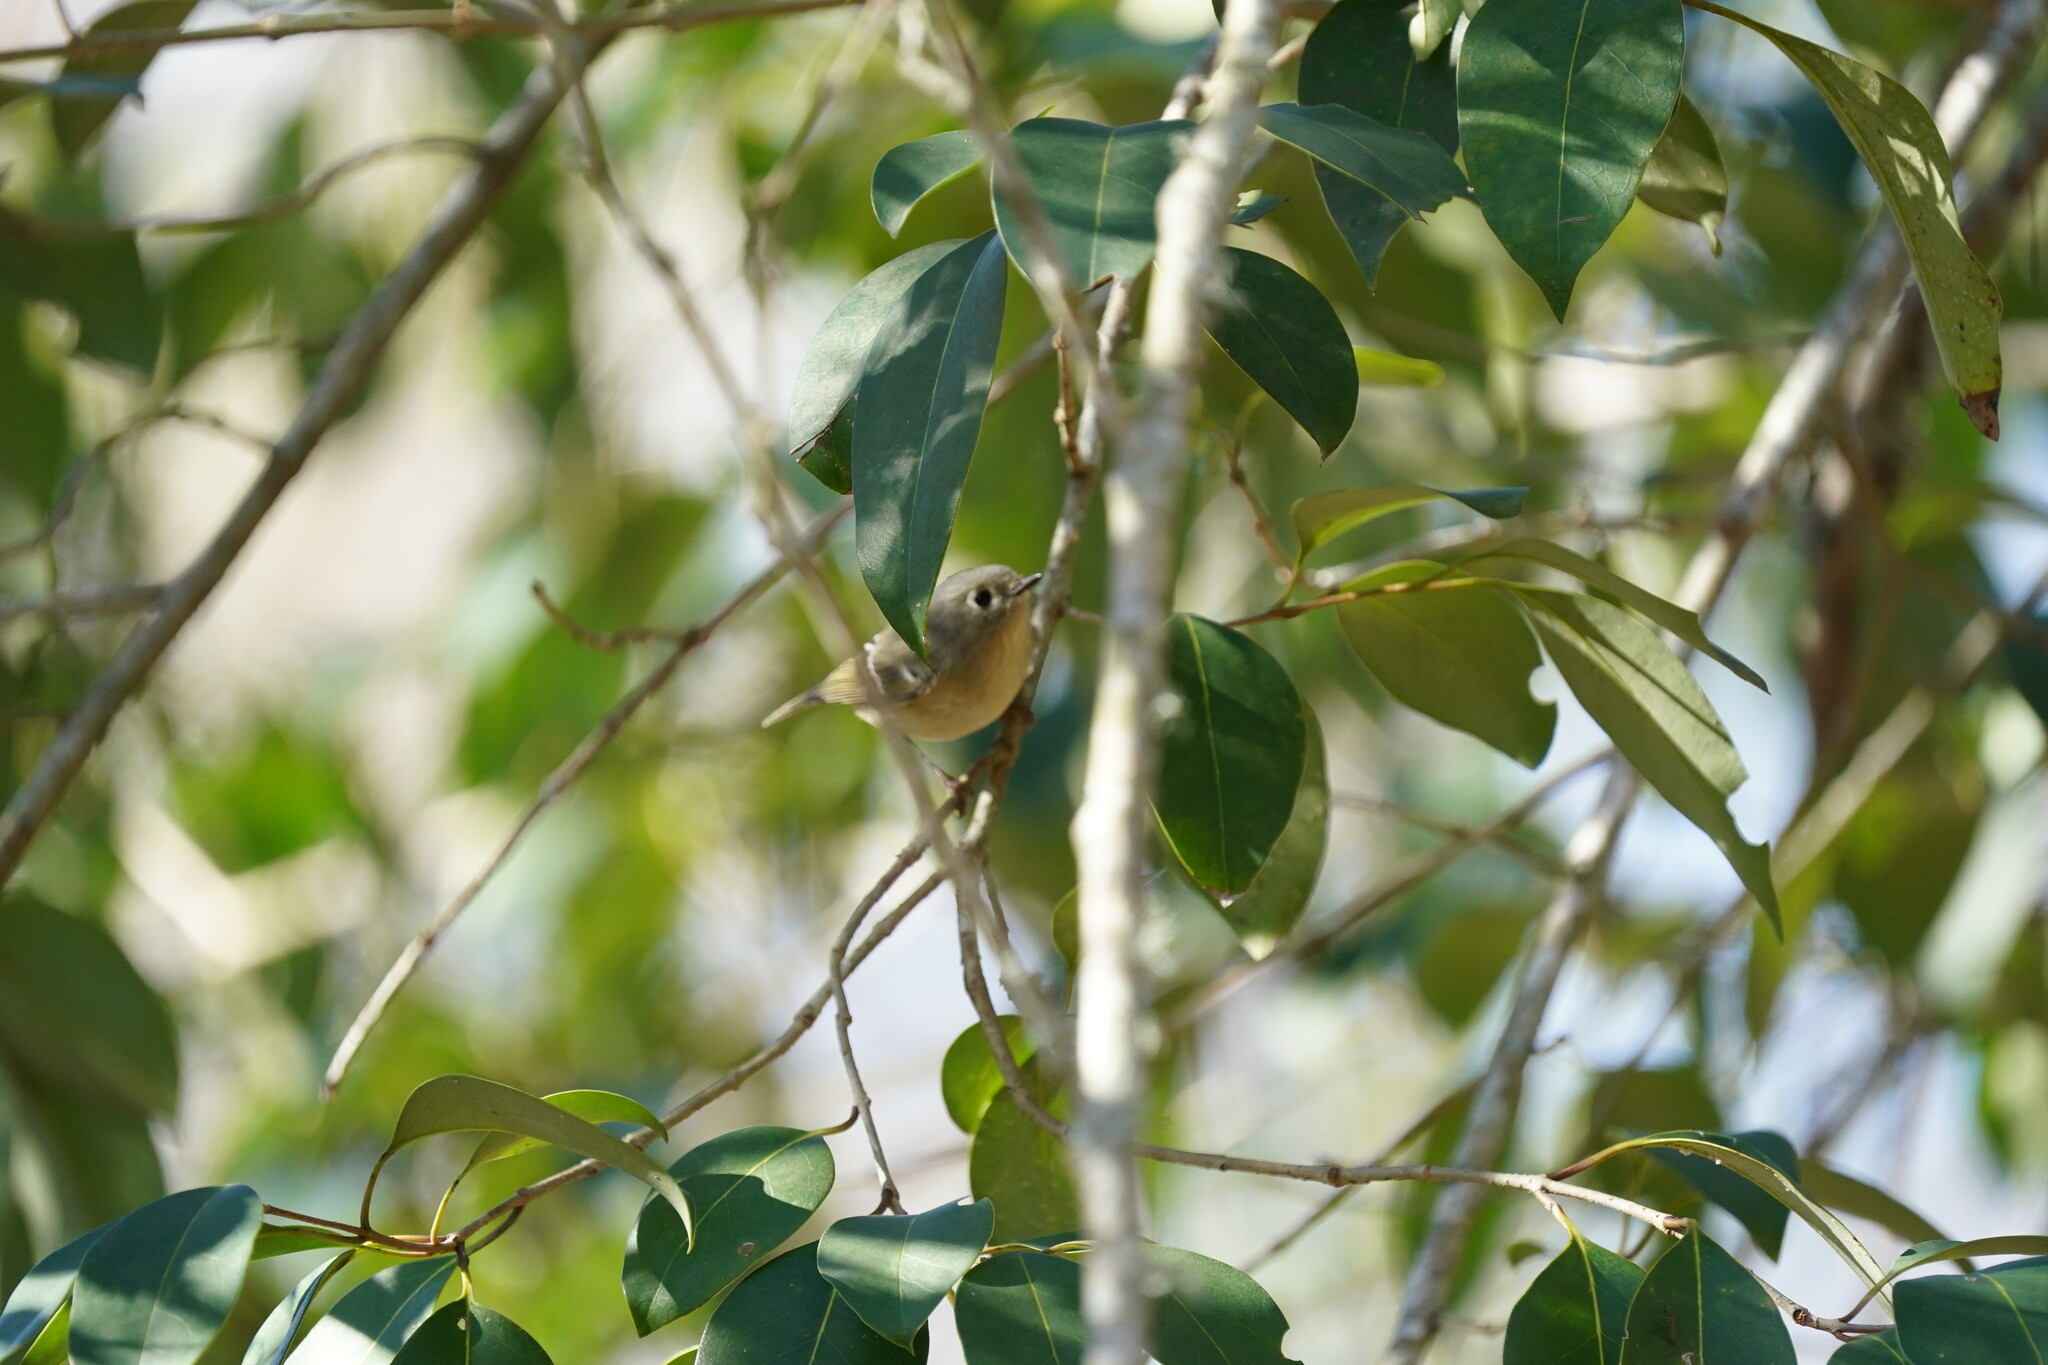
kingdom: Animalia
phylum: Chordata
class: Aves
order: Passeriformes
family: Regulidae
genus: Regulus
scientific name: Regulus calendula
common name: Ruby-crowned kinglet
